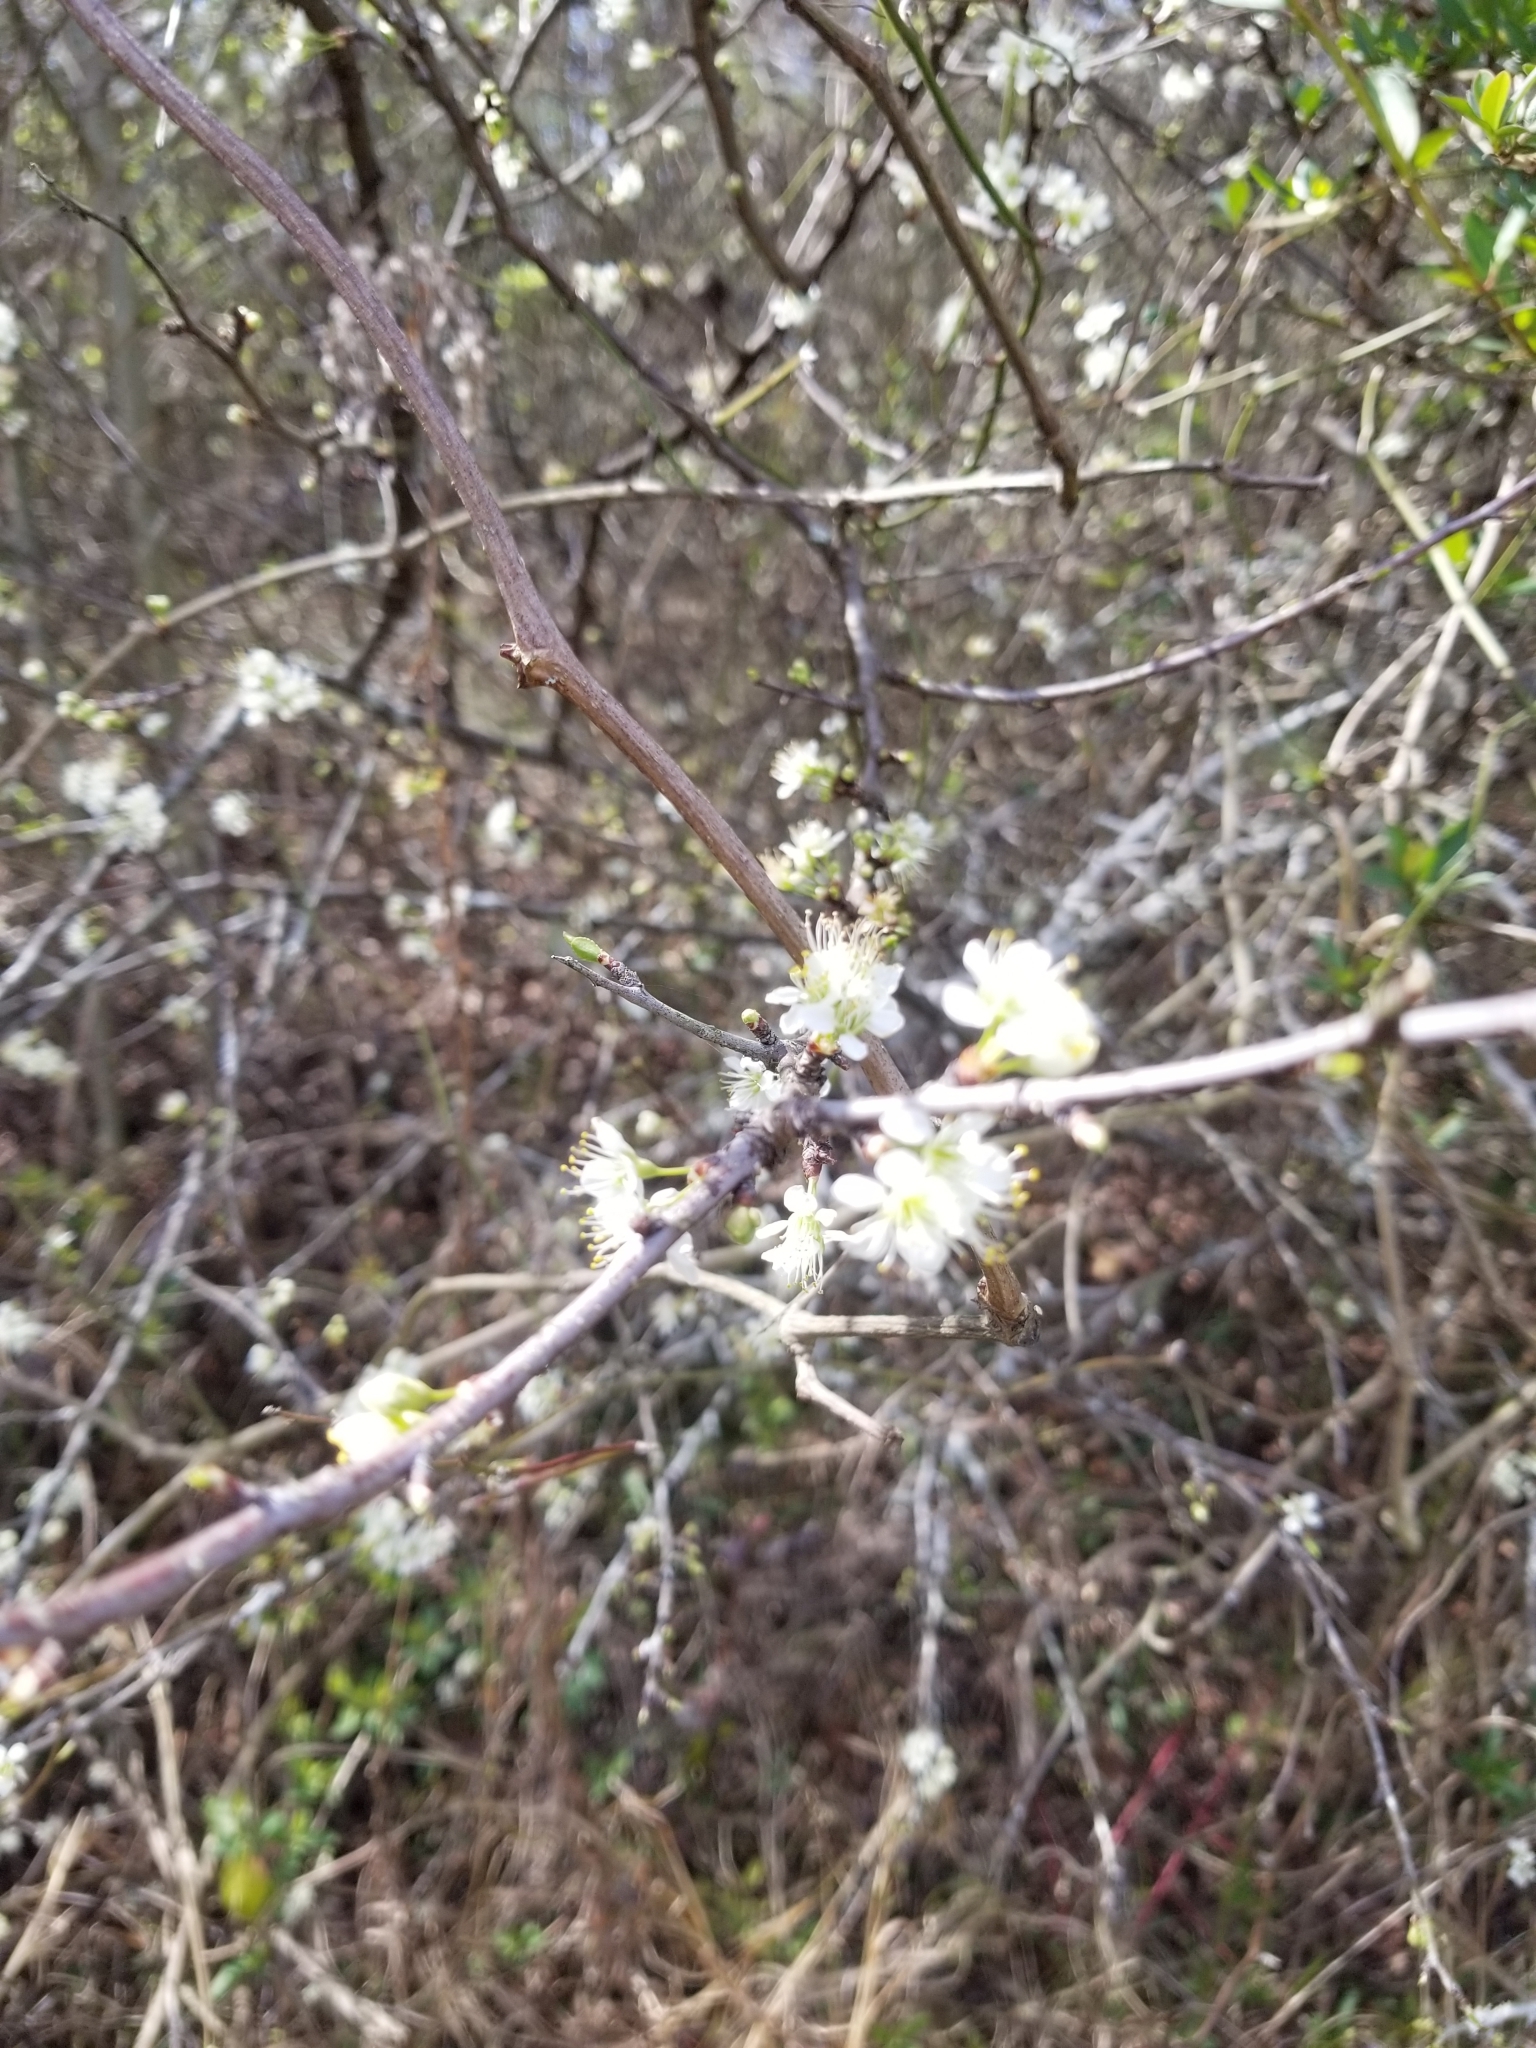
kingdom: Plantae
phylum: Tracheophyta
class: Magnoliopsida
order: Rosales
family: Rosaceae
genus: Prunus
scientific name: Prunus angustifolia
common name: Cherokee plum
